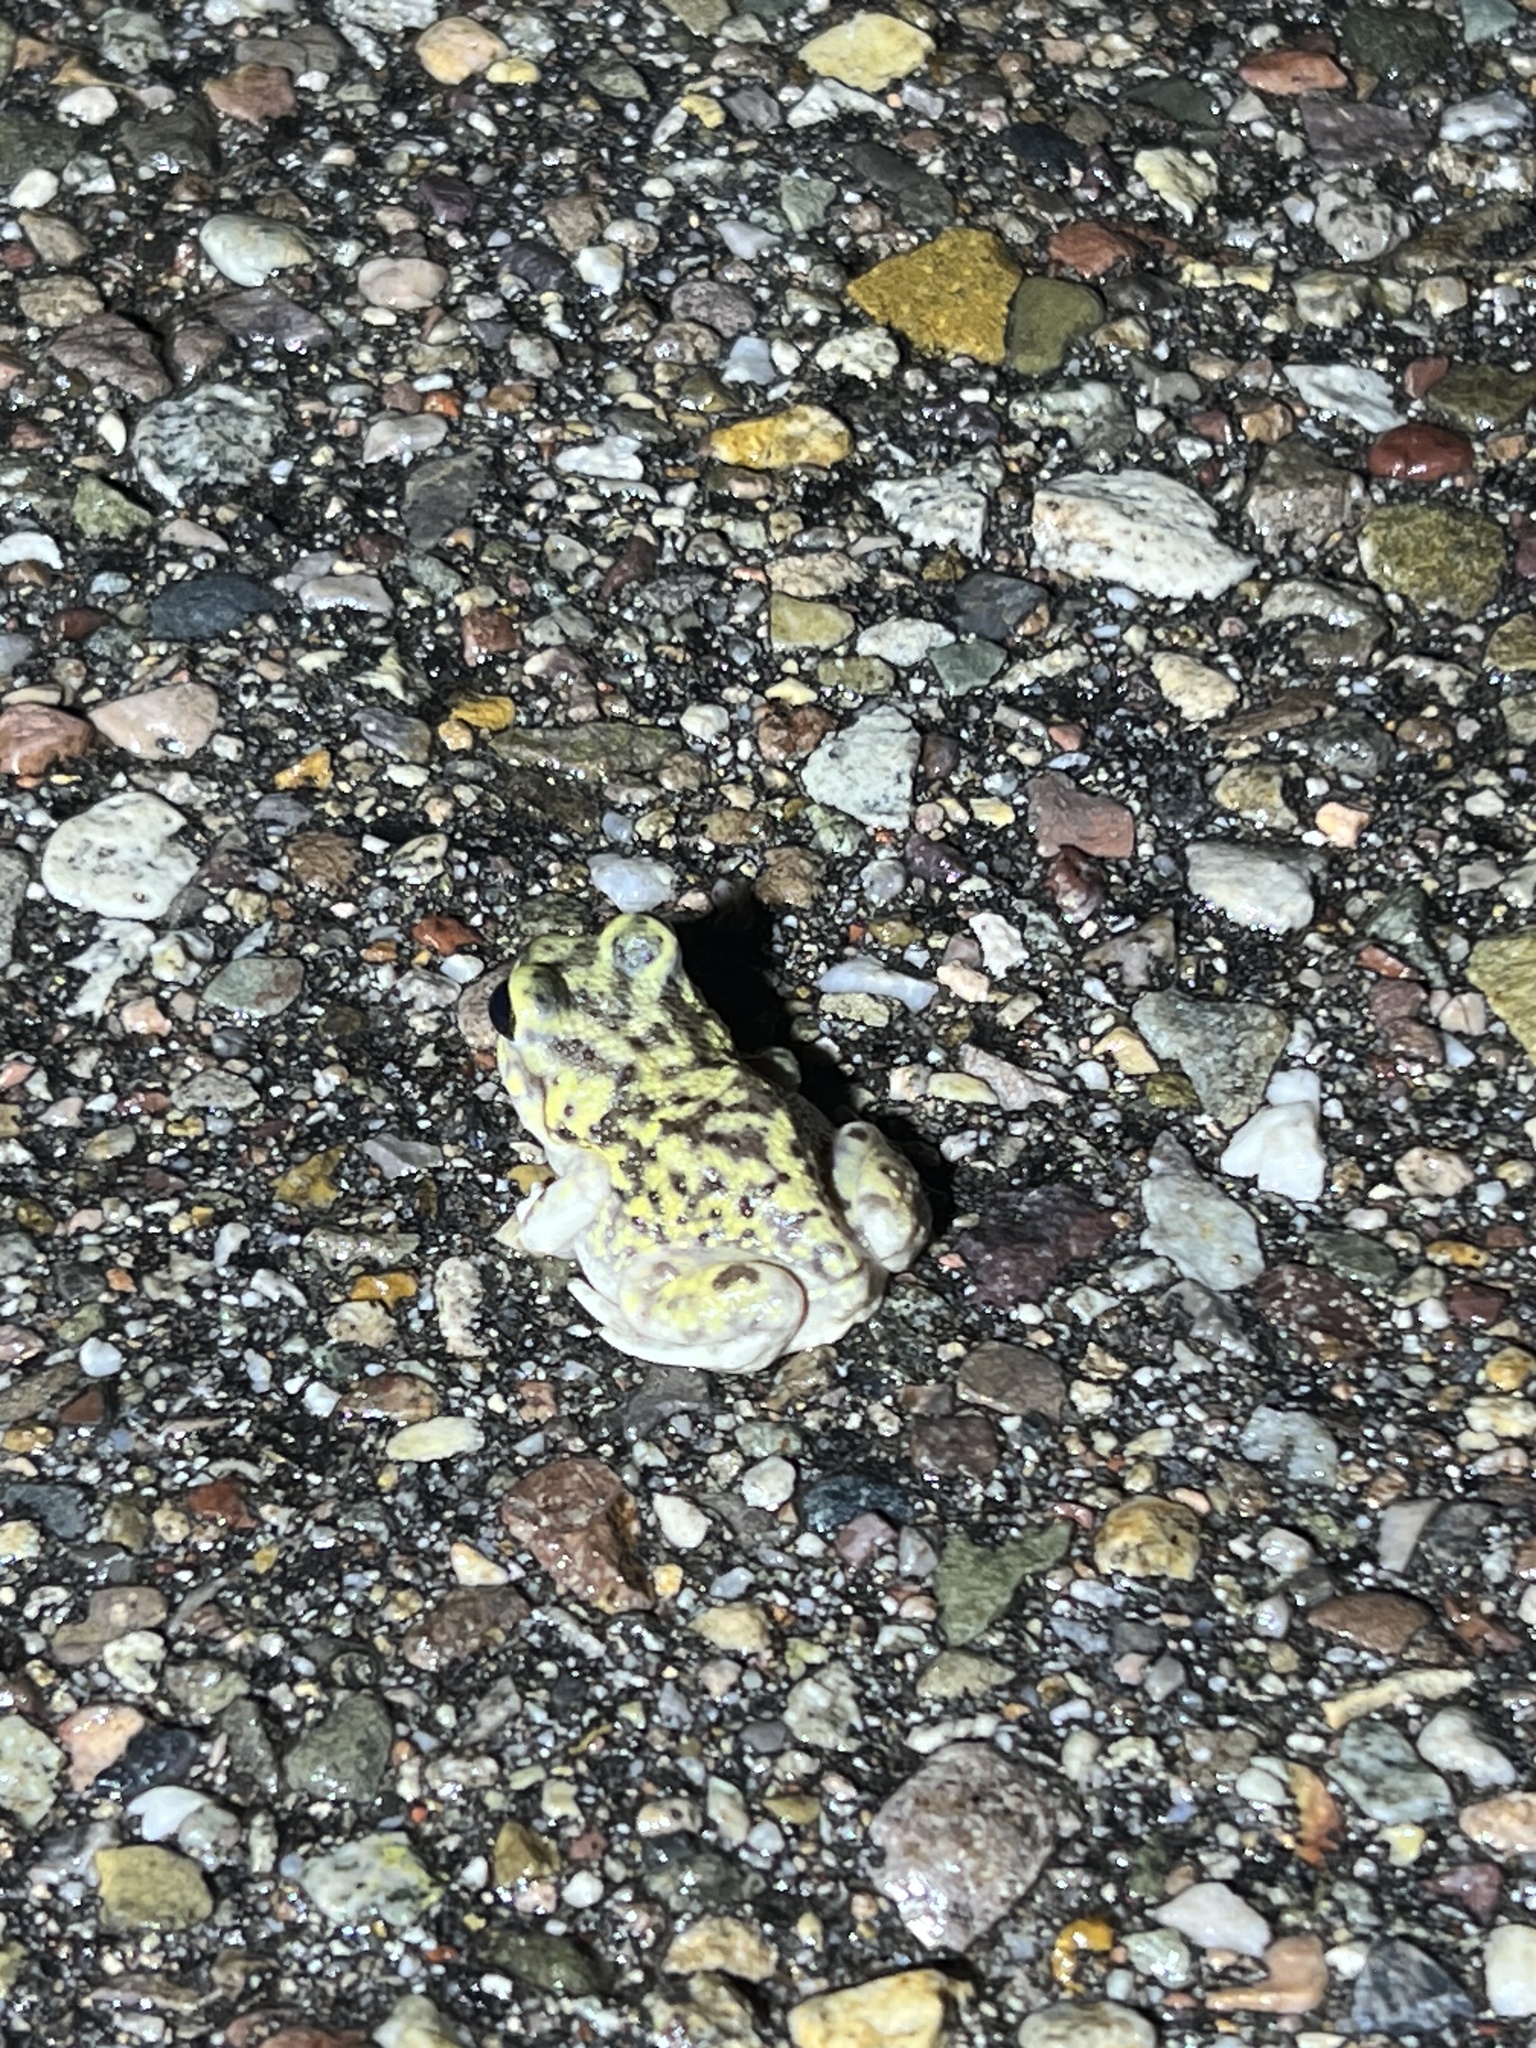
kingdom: Animalia
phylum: Chordata
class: Amphibia
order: Anura
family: Scaphiopodidae
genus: Scaphiopus
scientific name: Scaphiopus couchii
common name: Couch's spadefoot toad
